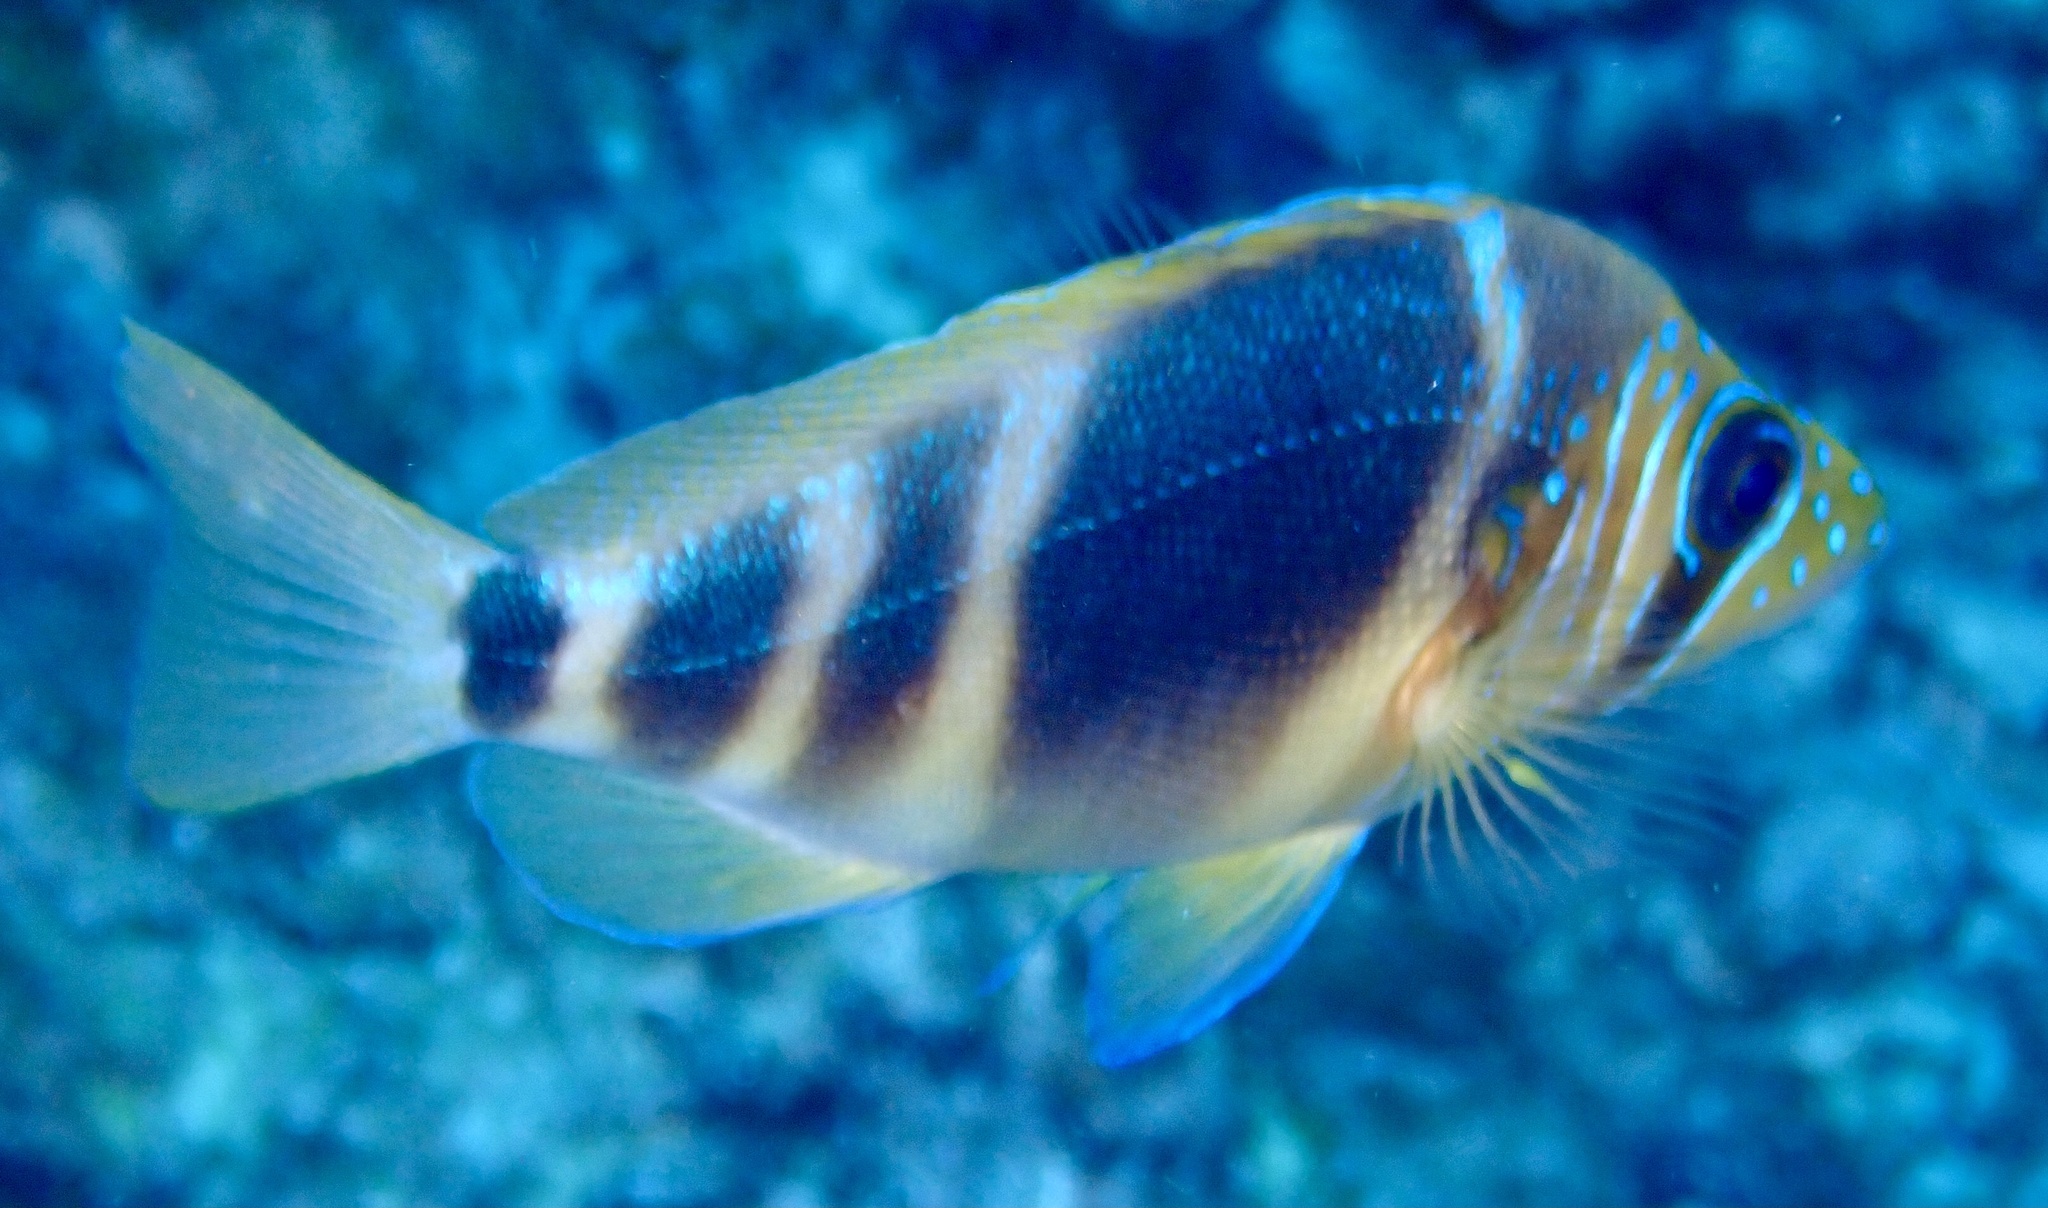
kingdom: Animalia
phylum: Chordata
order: Perciformes
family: Serranidae
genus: Hypoplectrus
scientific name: Hypoplectrus puella
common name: Barred hamlet
